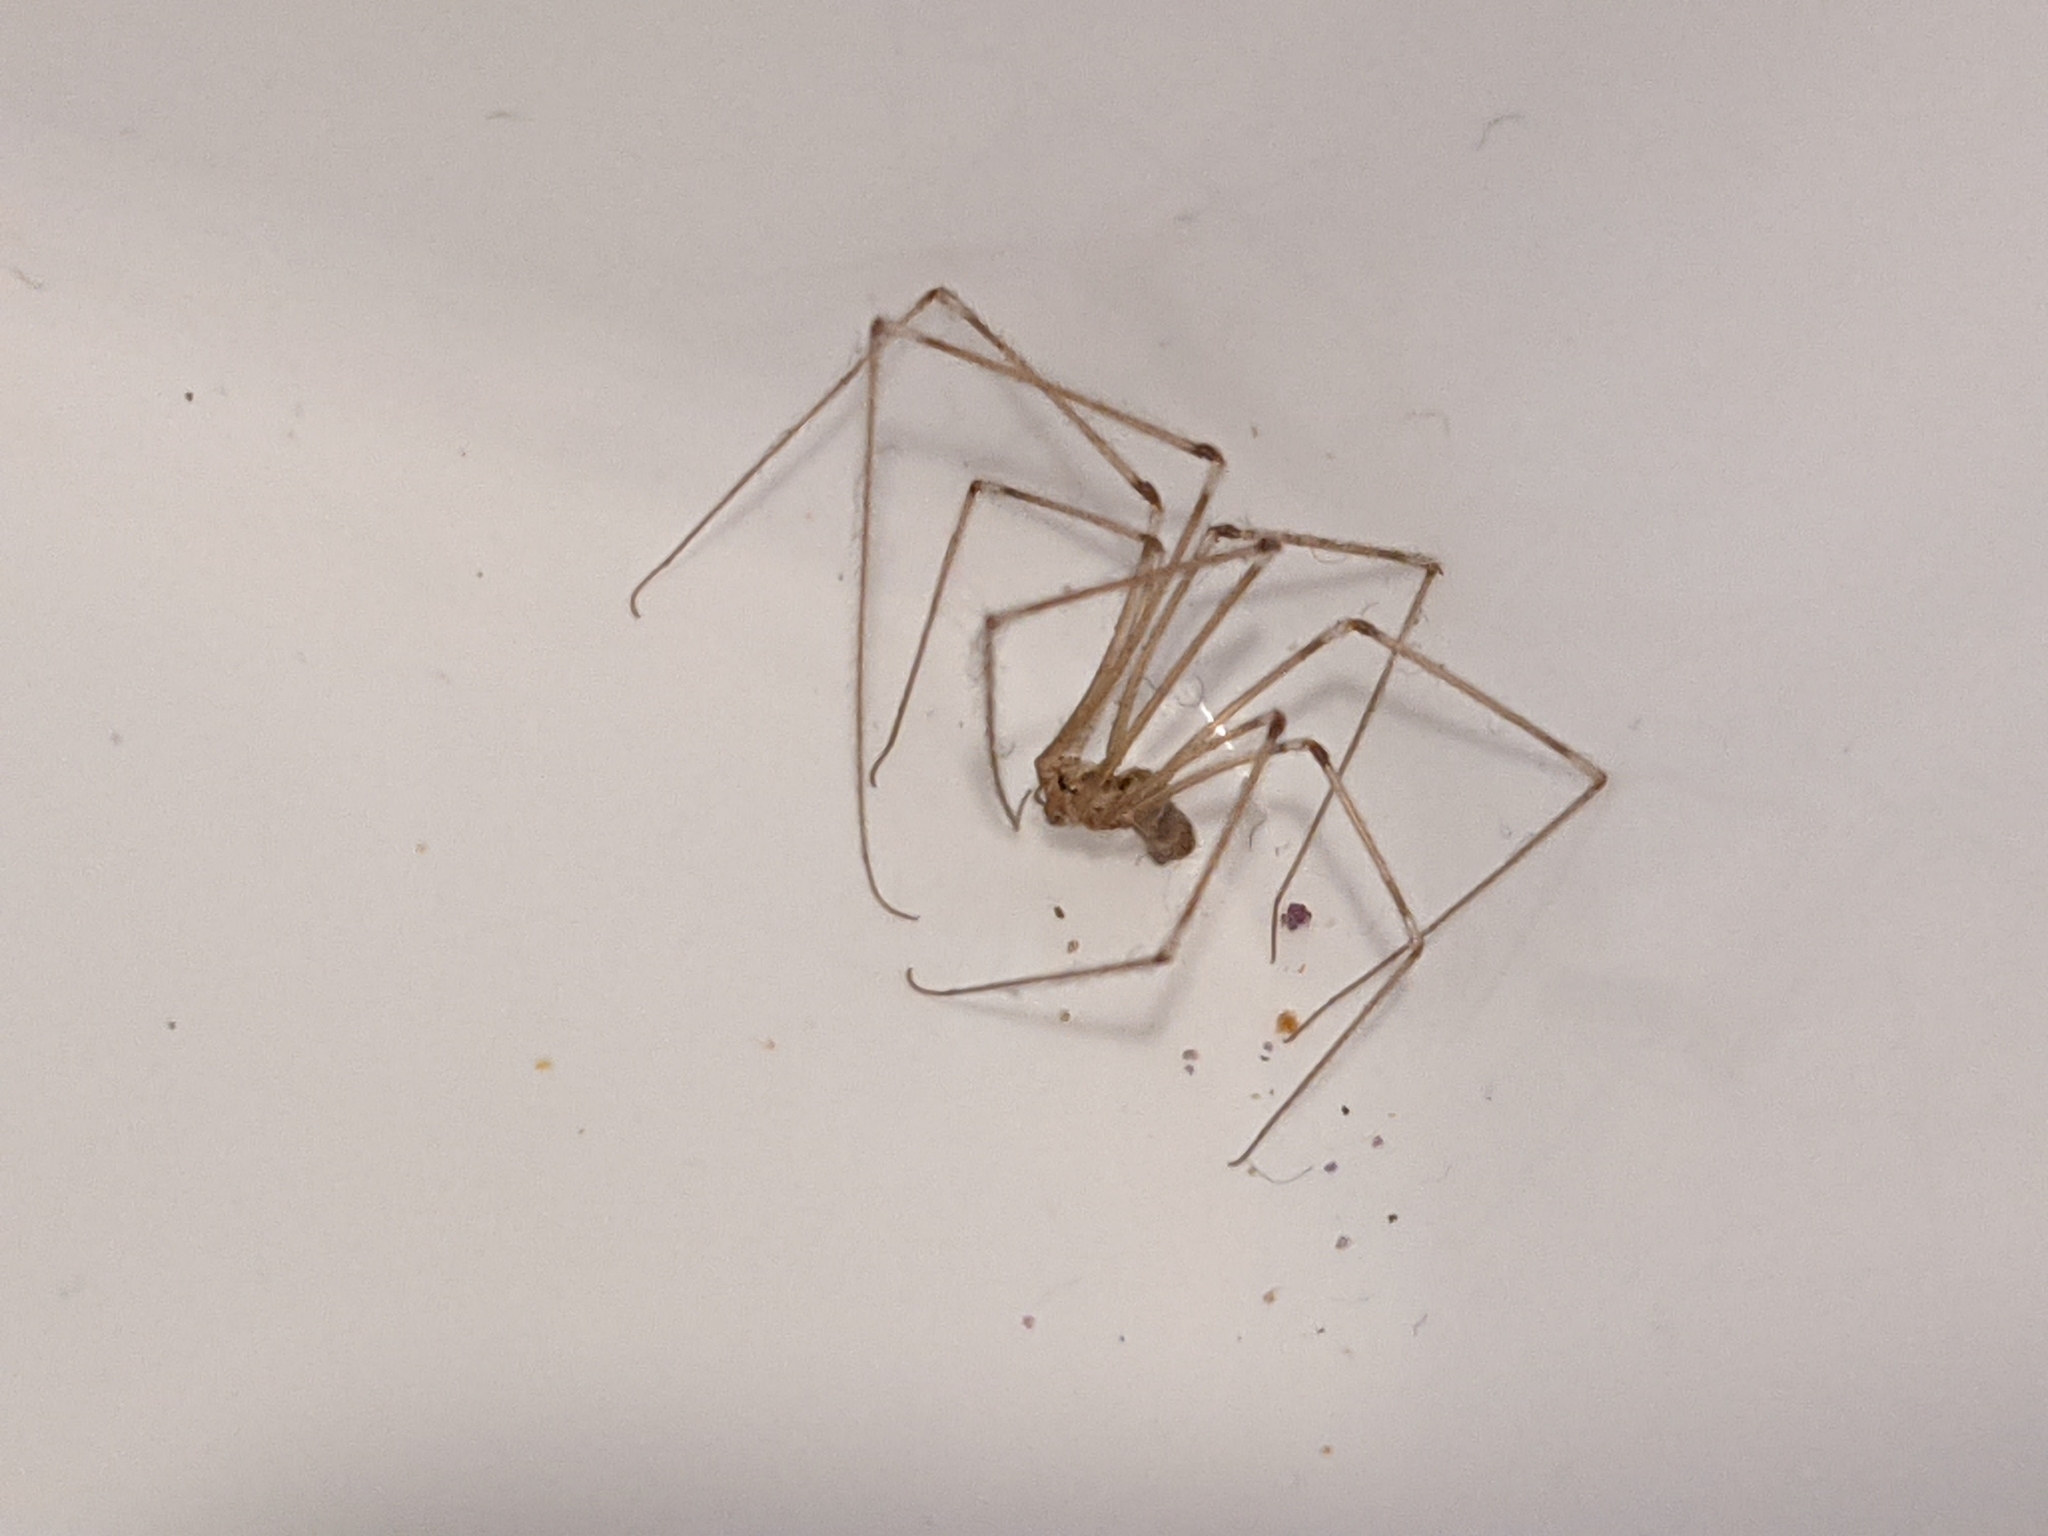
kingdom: Animalia
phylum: Arthropoda
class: Arachnida
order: Araneae
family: Pholcidae
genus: Pholcus
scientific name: Pholcus phalangioides
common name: Longbodied cellar spider
